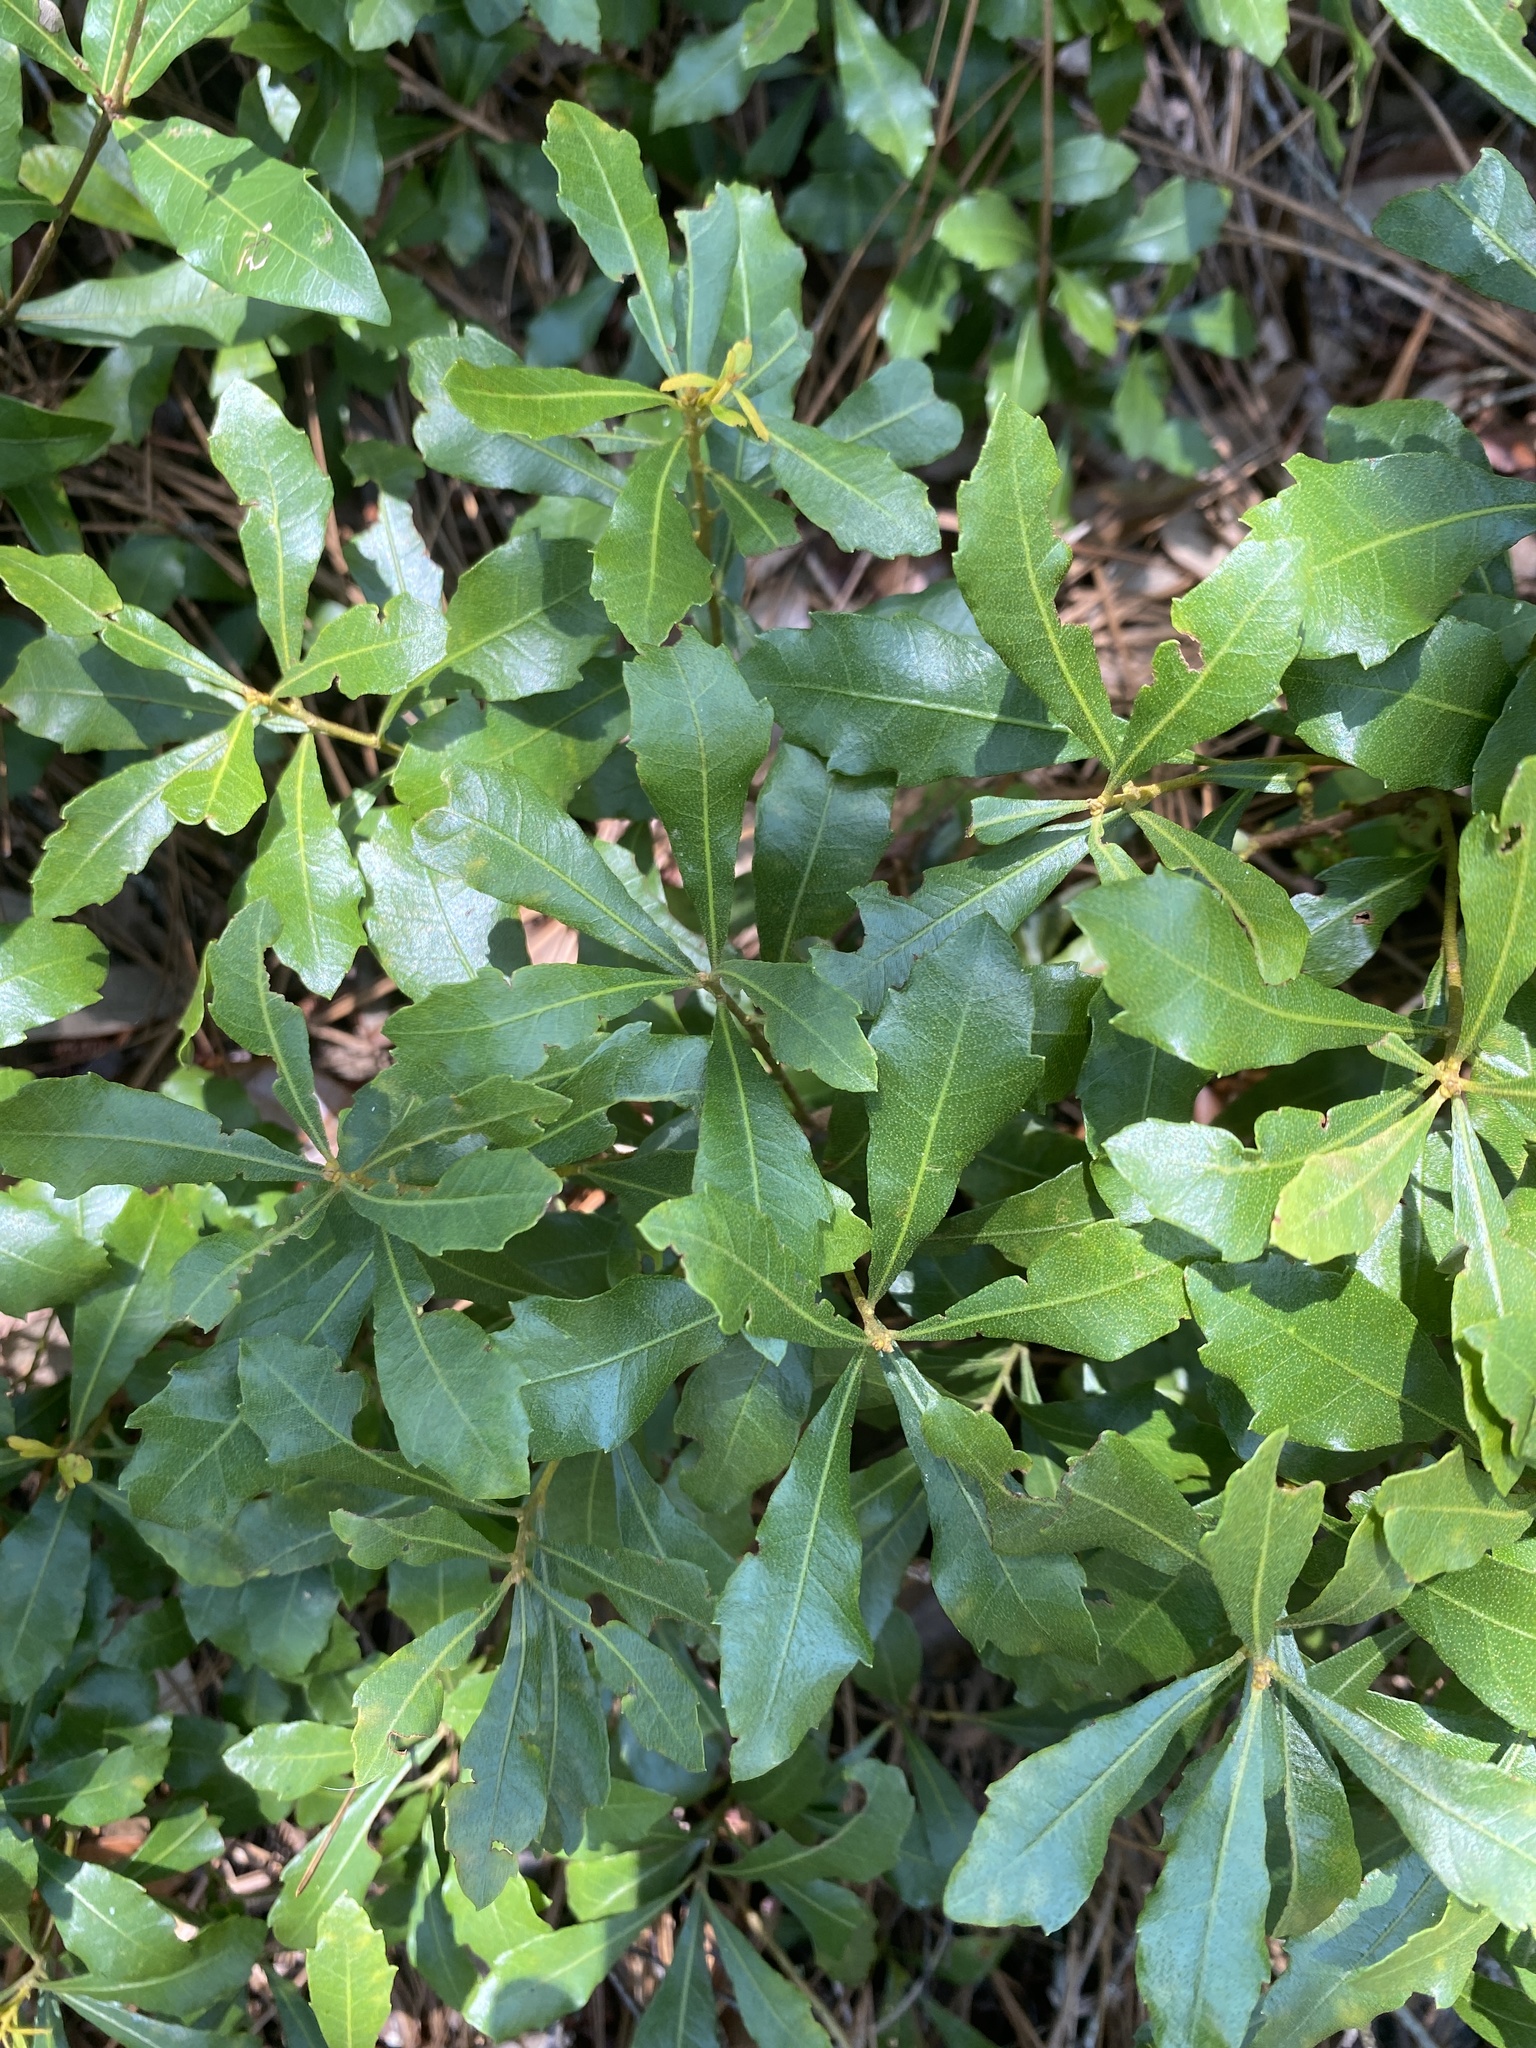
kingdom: Plantae
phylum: Tracheophyta
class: Magnoliopsida
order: Fagales
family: Myricaceae
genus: Morella
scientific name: Morella cerifera
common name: Wax myrtle
